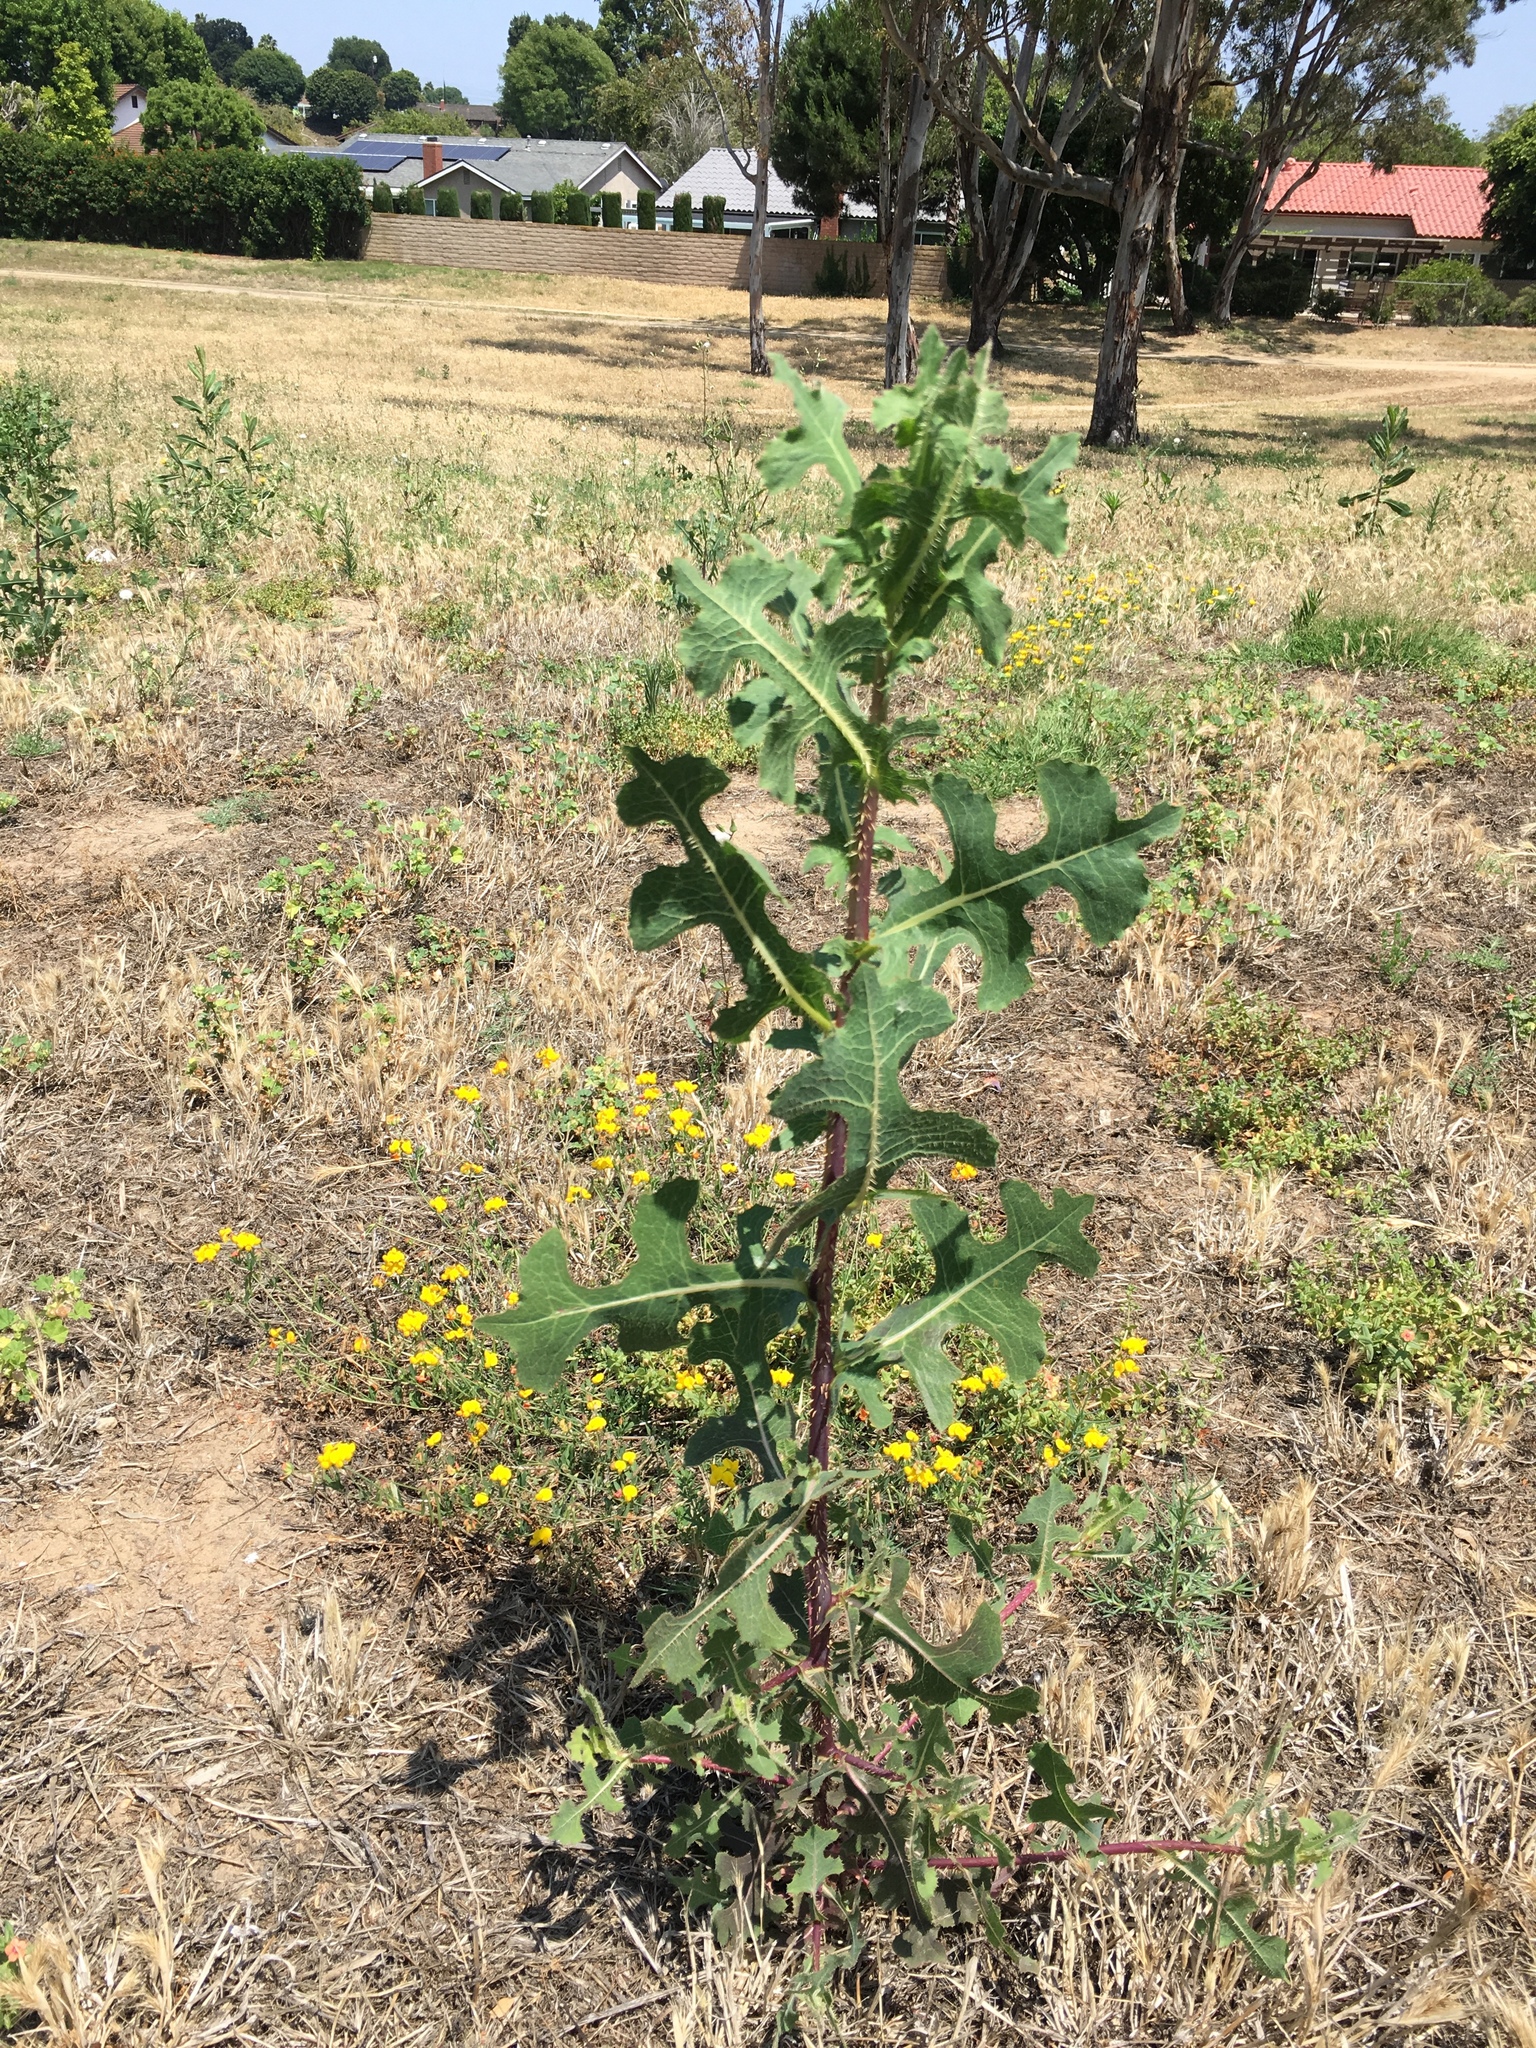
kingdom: Plantae
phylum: Tracheophyta
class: Magnoliopsida
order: Asterales
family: Asteraceae
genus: Lactuca
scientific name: Lactuca serriola
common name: Prickly lettuce
